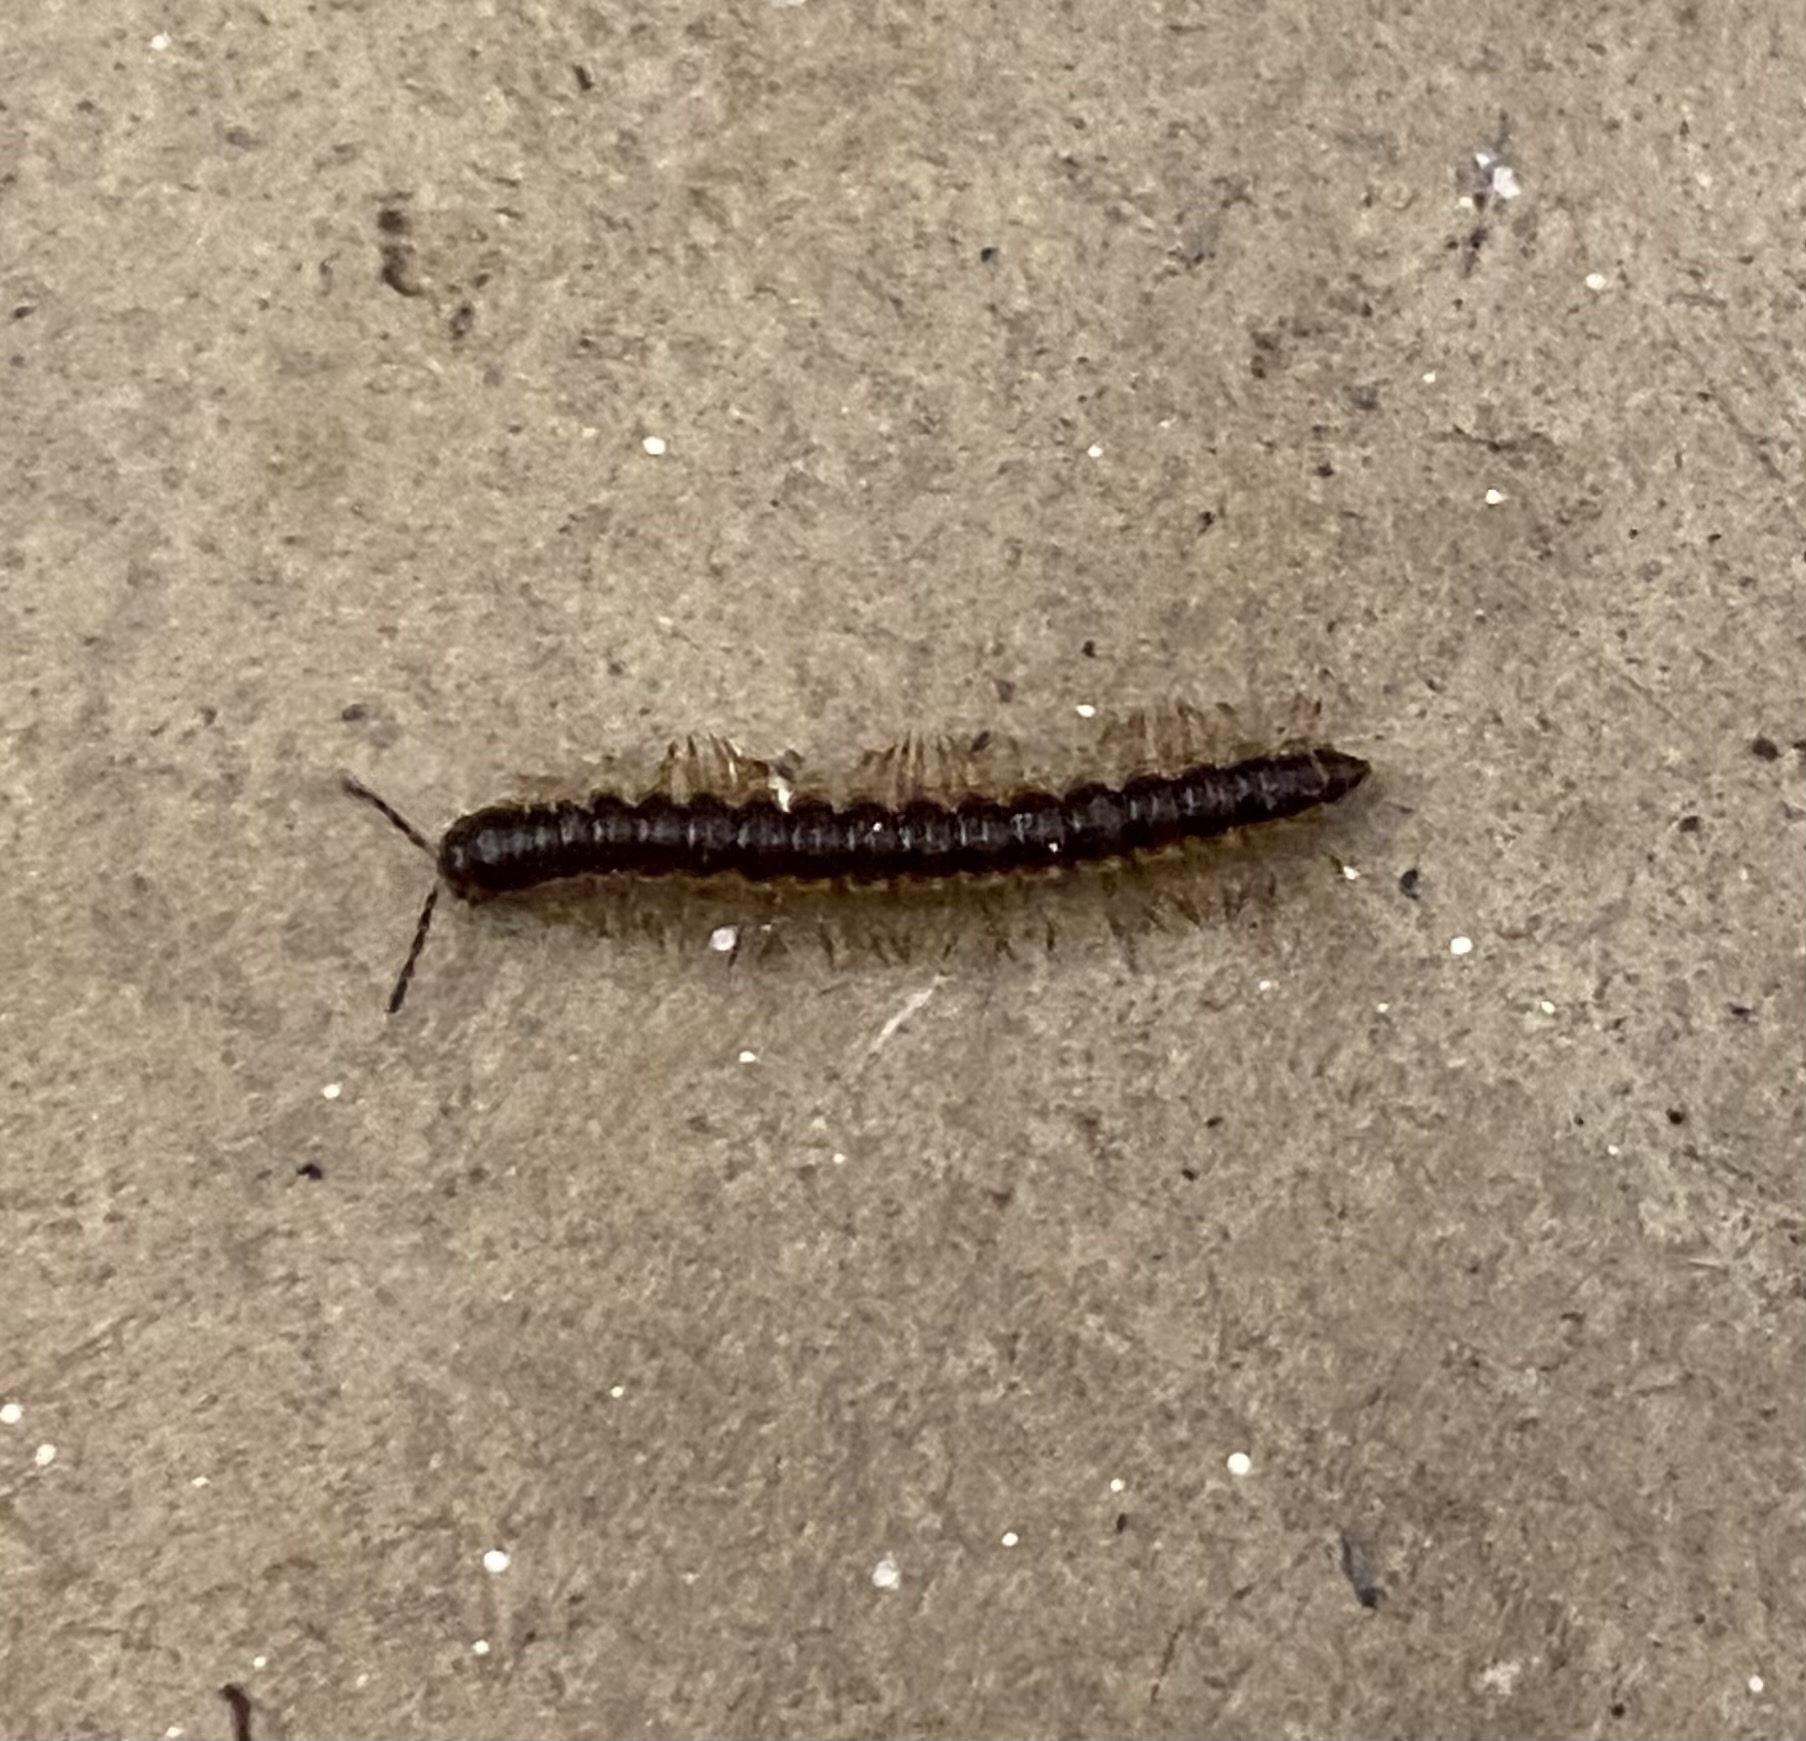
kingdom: Animalia
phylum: Arthropoda
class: Diplopoda
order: Polydesmida
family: Paradoxosomatidae
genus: Oxidus
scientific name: Oxidus gracilis
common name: Greenhouse millipede
